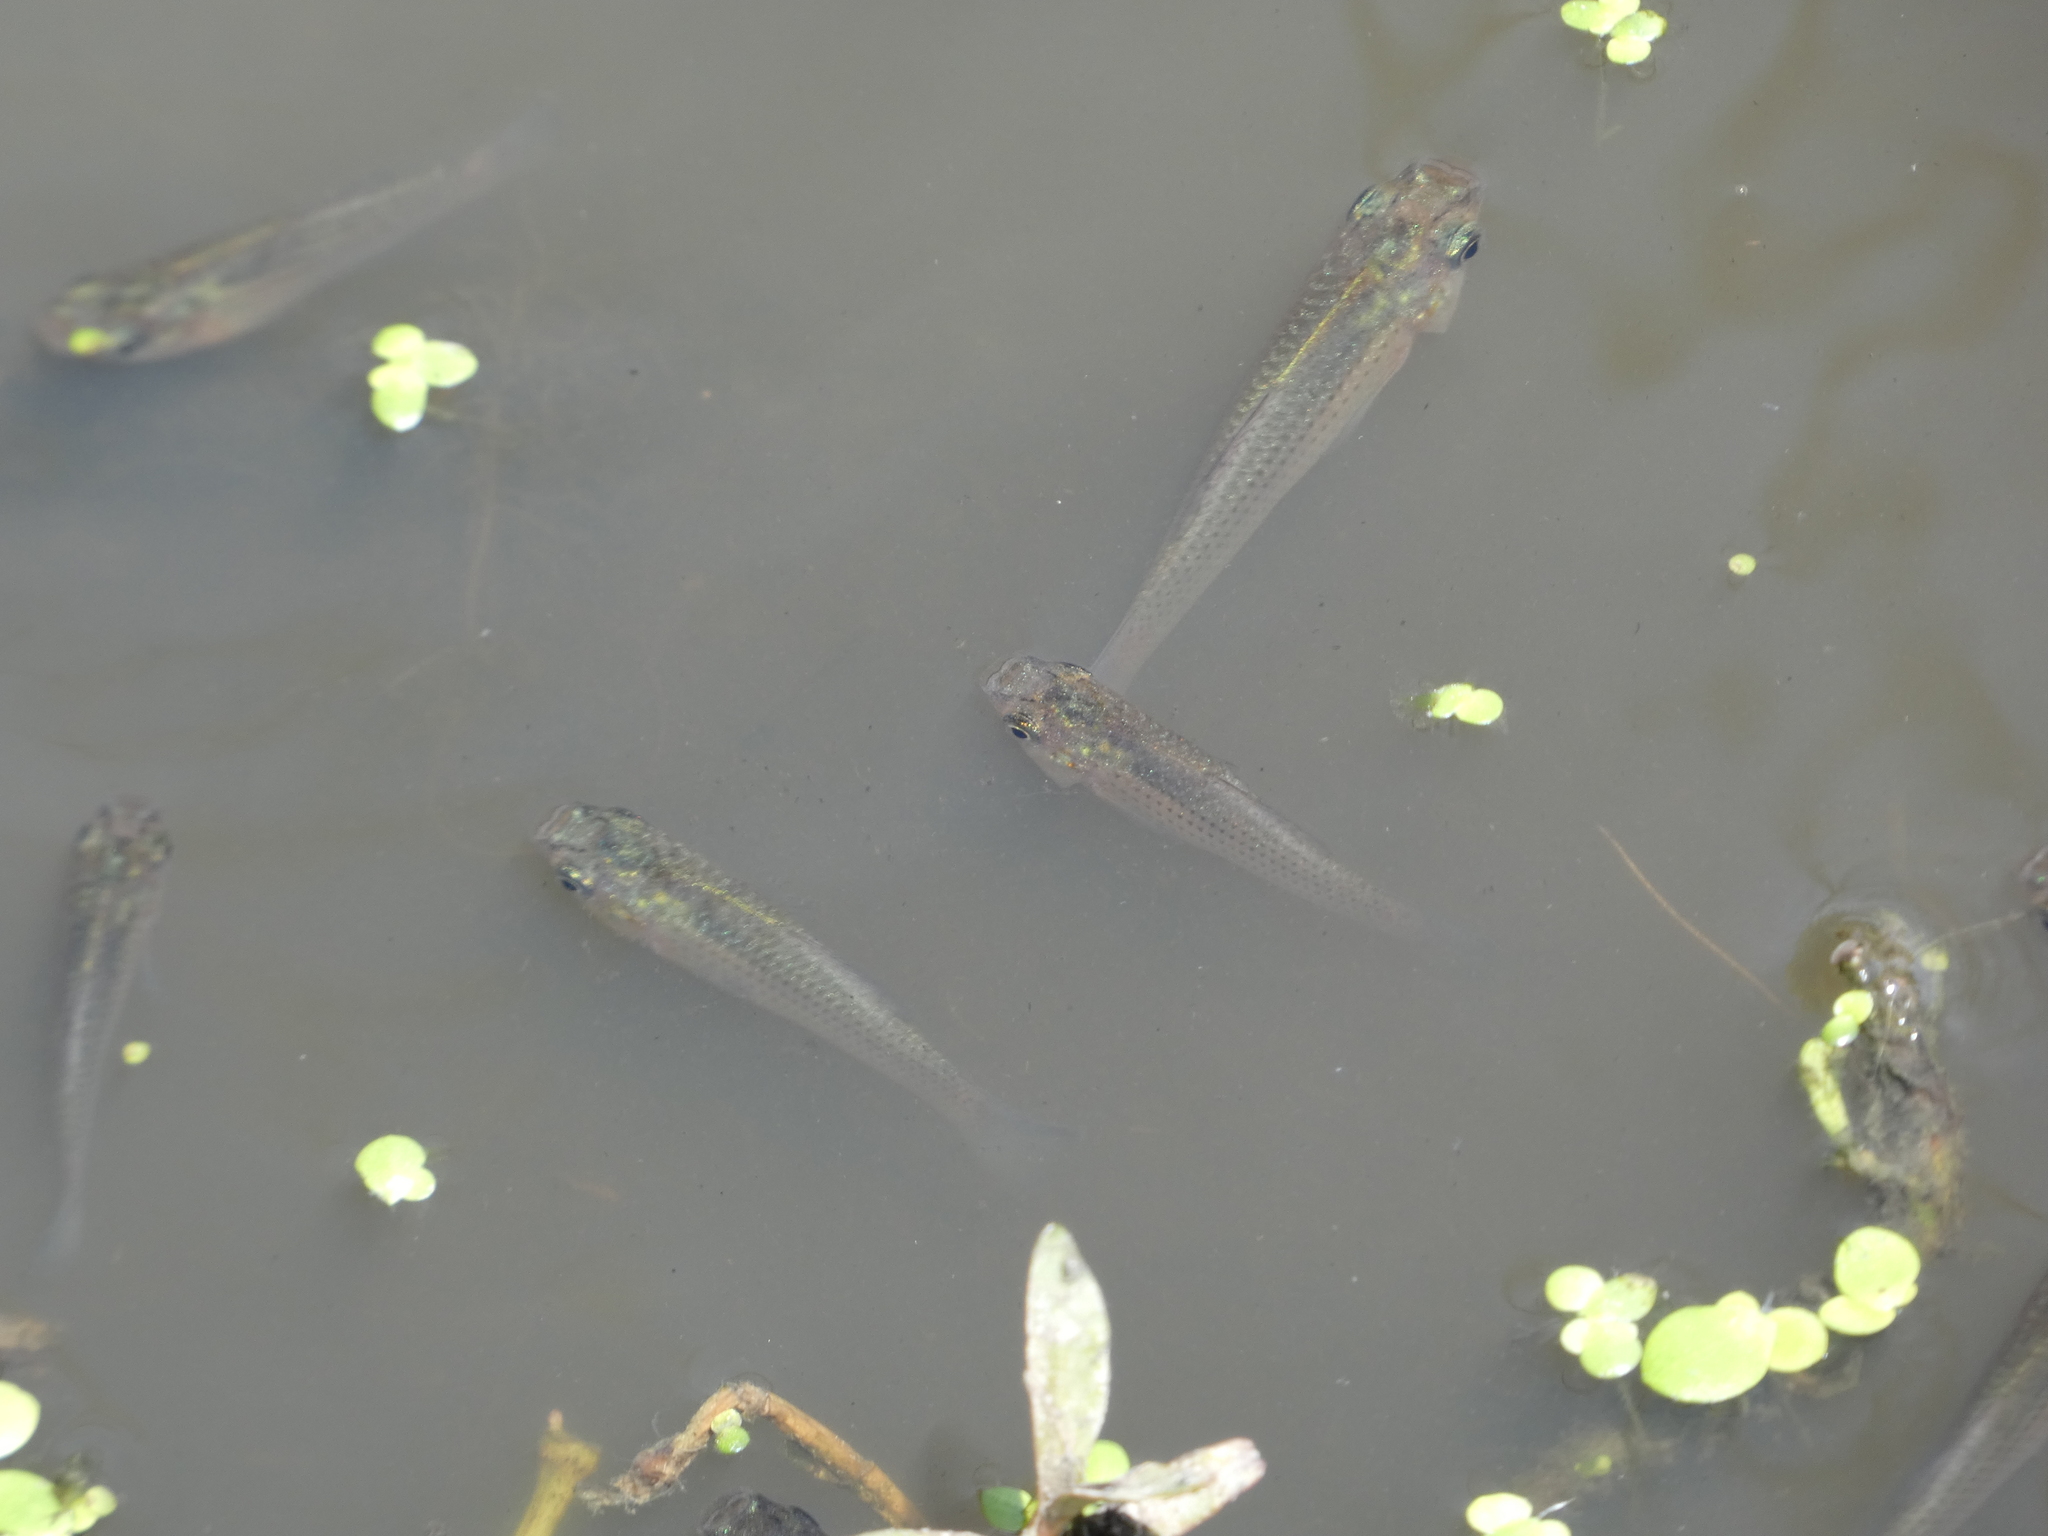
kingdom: Animalia
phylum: Chordata
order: Cyprinodontiformes
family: Poeciliidae
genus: Gambusia
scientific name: Gambusia holbrooki
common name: Eastern mosquitofish
